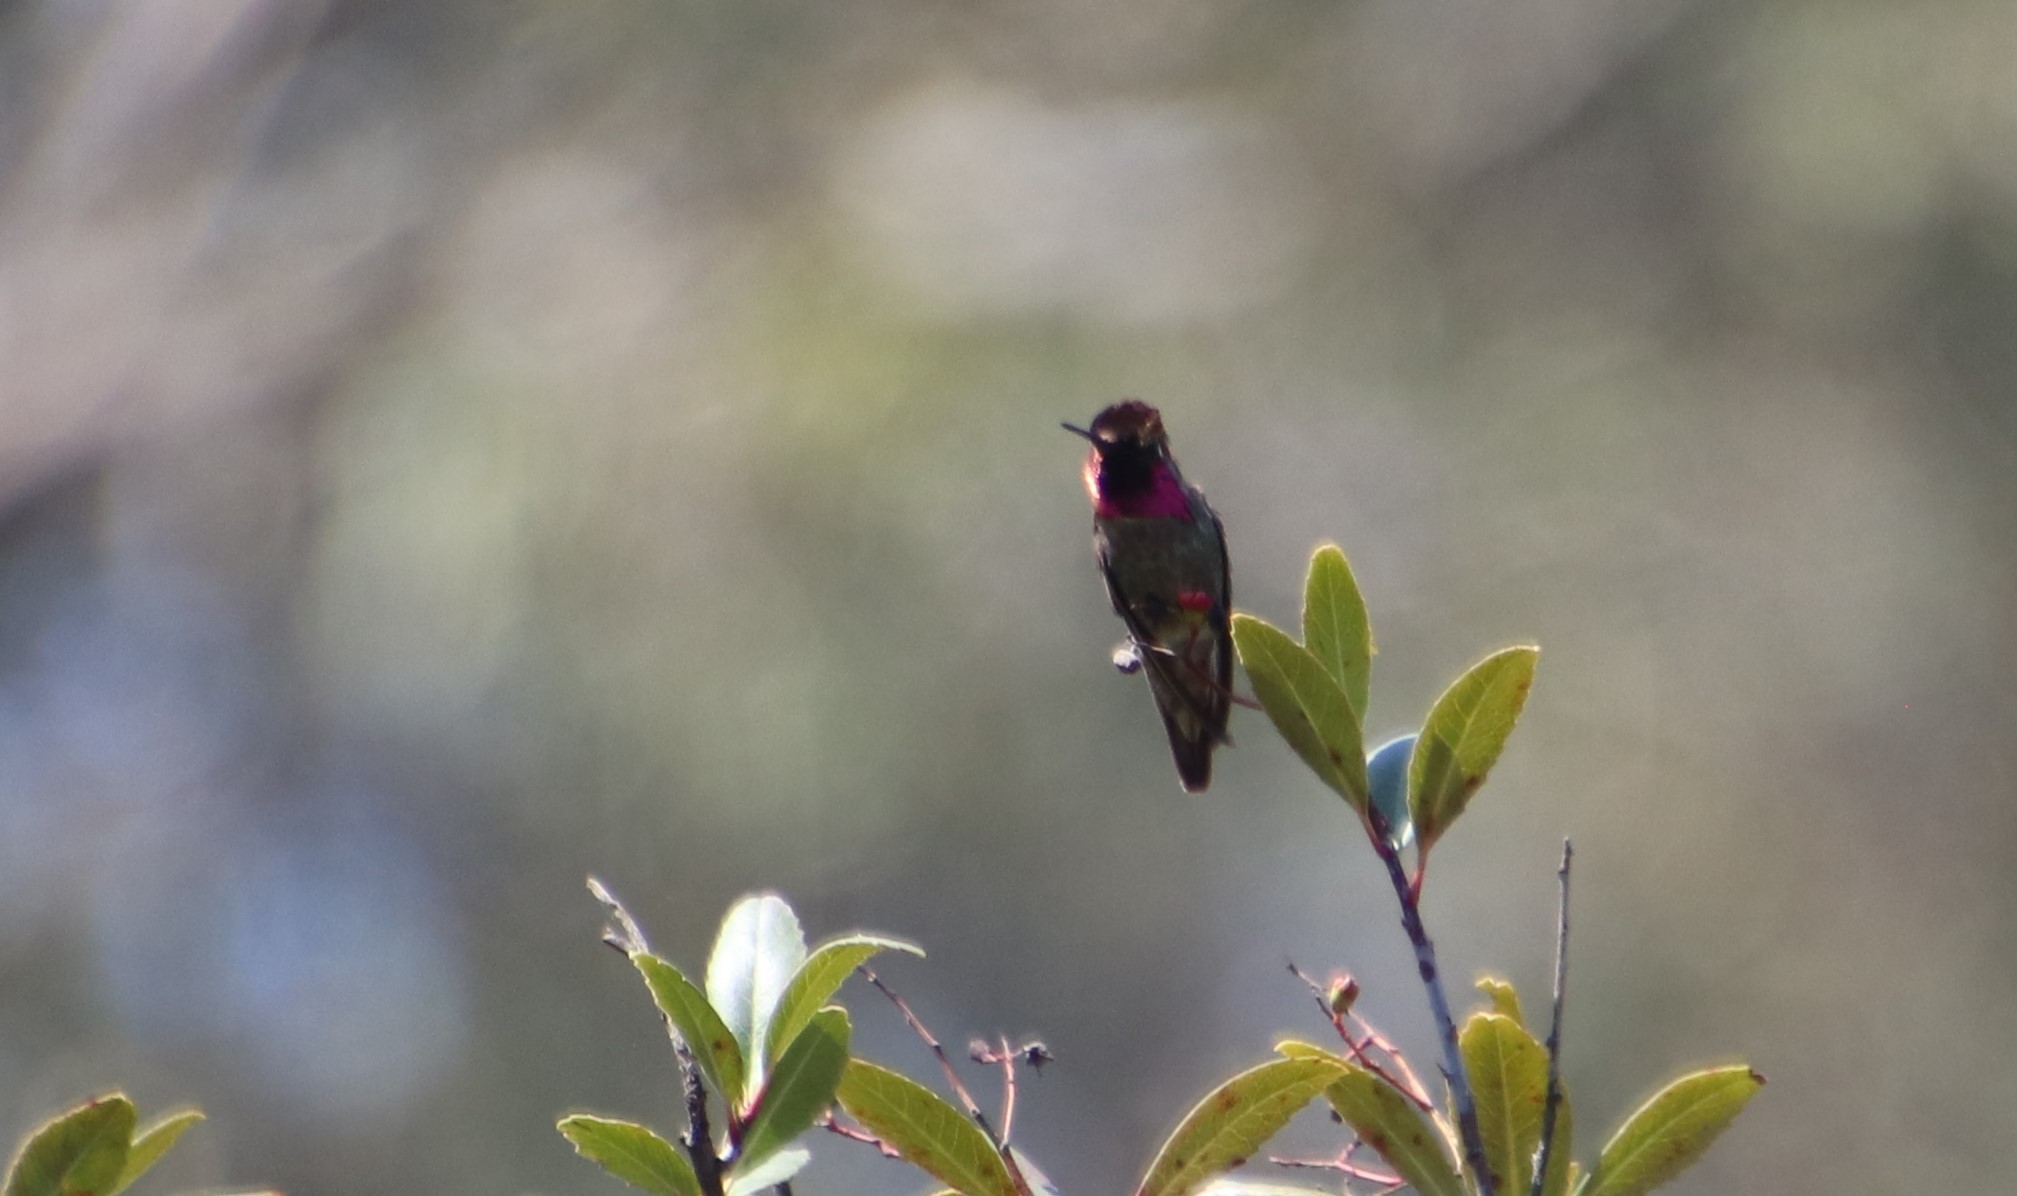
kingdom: Animalia
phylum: Chordata
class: Aves
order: Apodiformes
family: Trochilidae
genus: Calypte
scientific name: Calypte anna
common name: Anna's hummingbird
